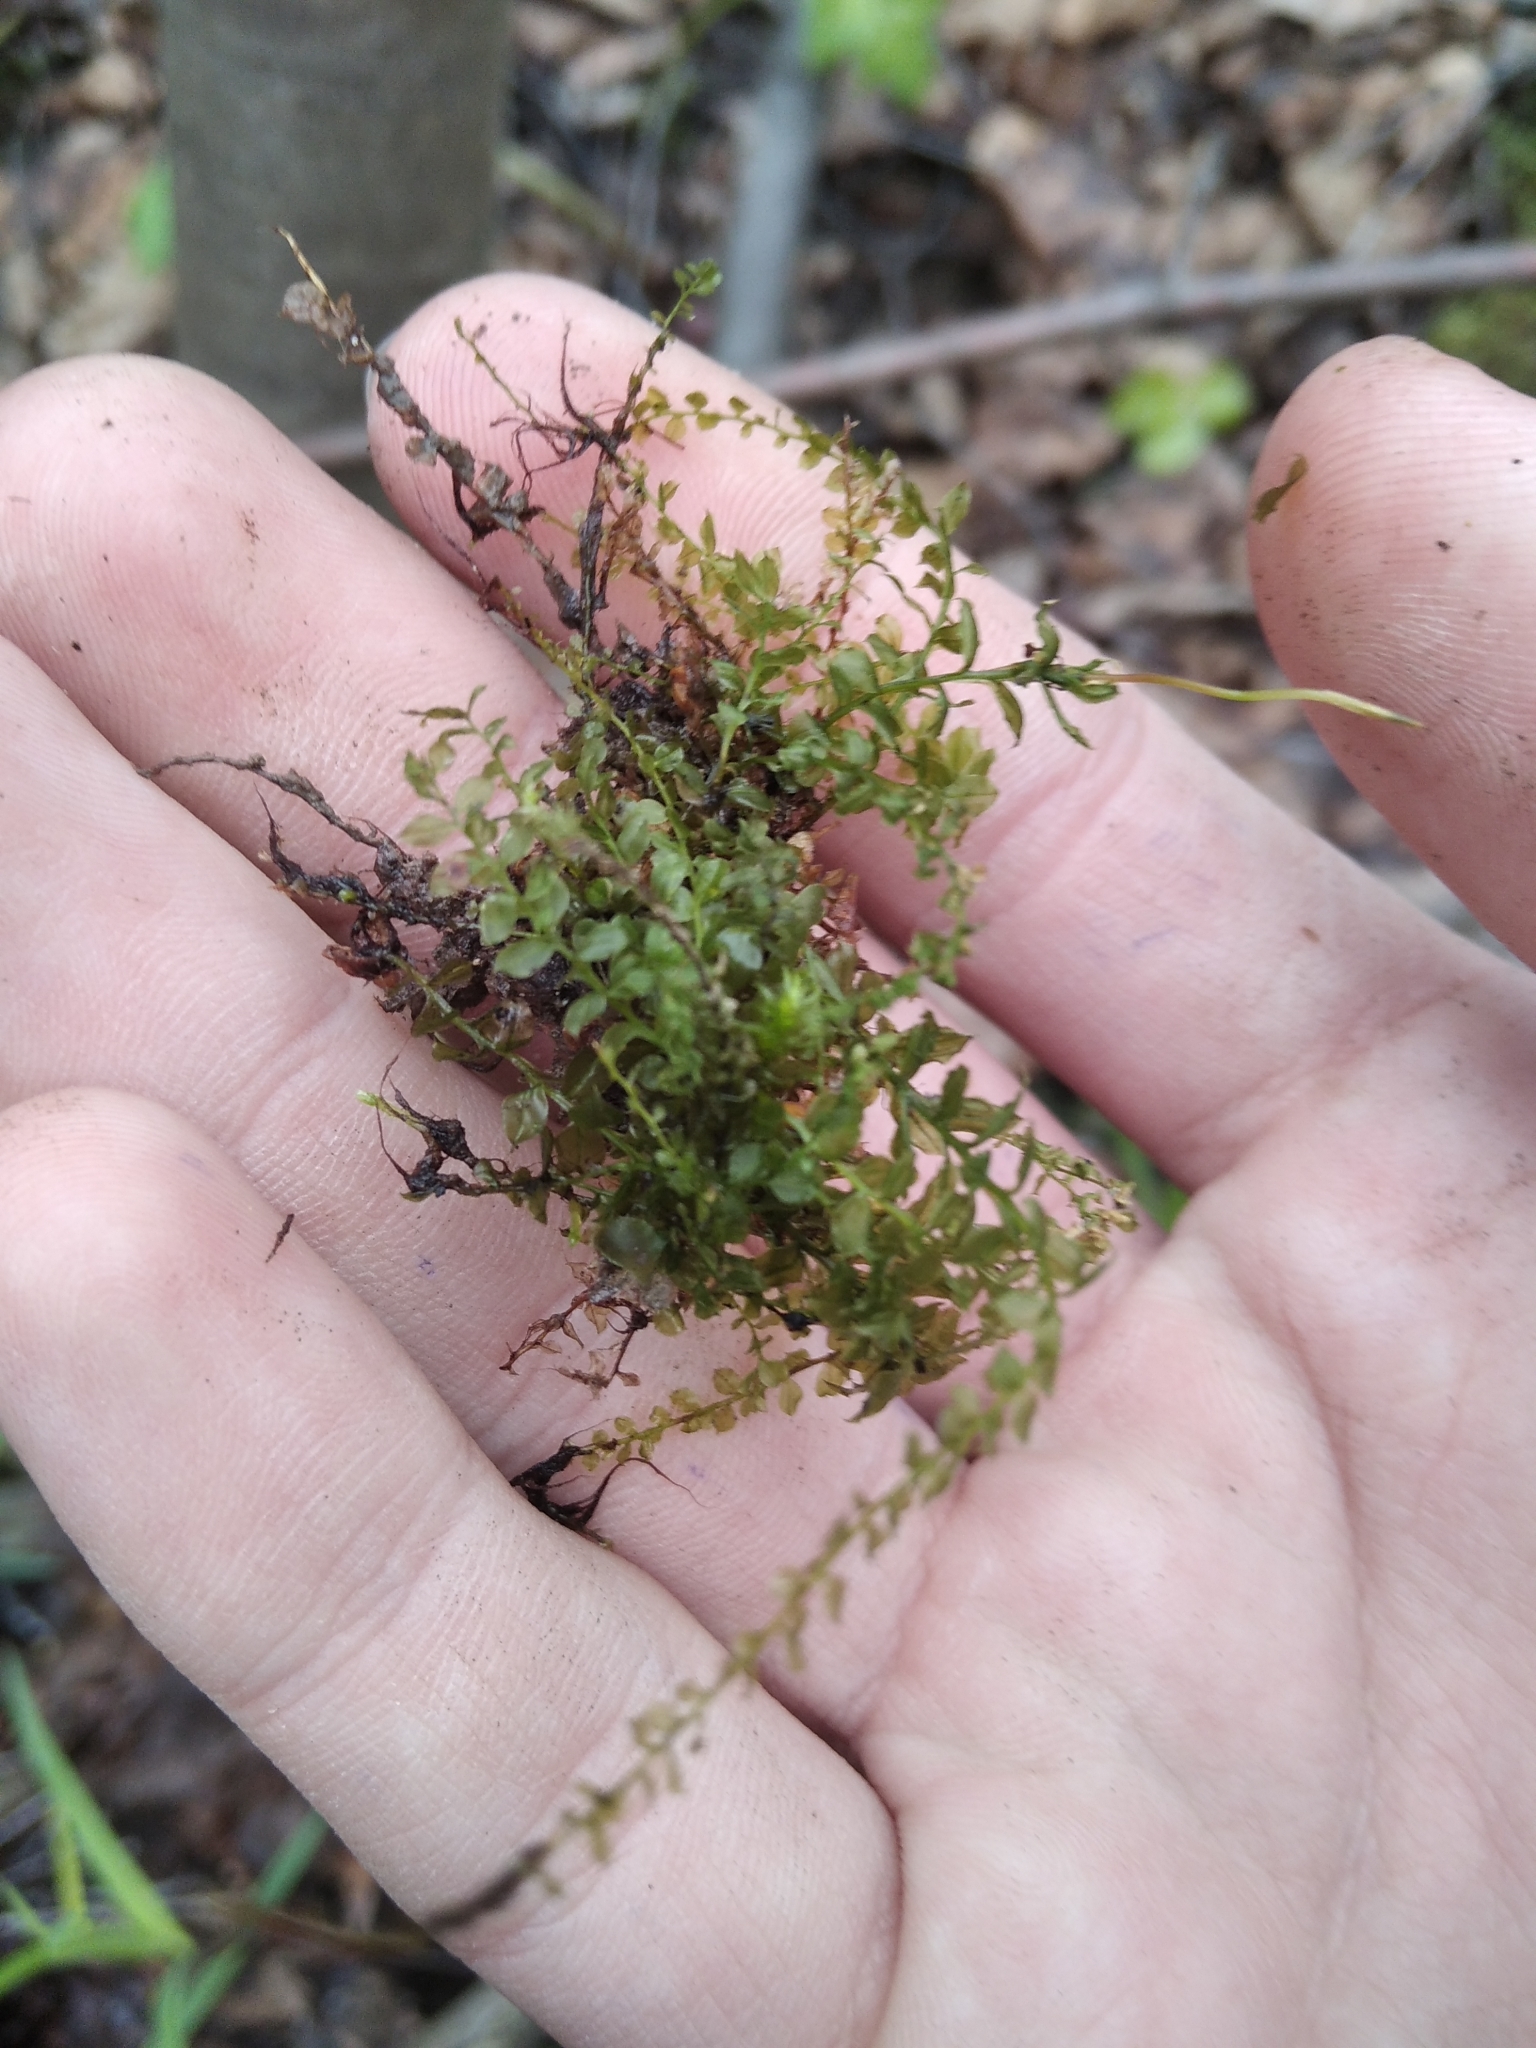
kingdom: Plantae
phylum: Bryophyta
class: Bryopsida
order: Bryales
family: Mniaceae
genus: Plagiomnium
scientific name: Plagiomnium cuspidatum
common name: Woodsy leafy moss
